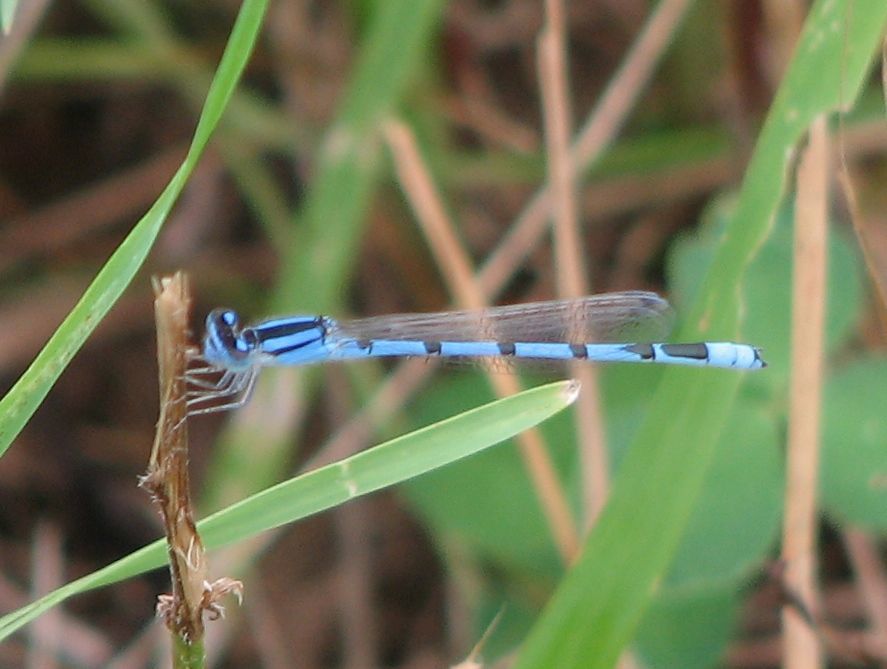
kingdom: Animalia
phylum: Arthropoda
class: Insecta
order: Odonata
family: Coenagrionidae
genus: Enallagma
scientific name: Enallagma civile
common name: Damselfly
